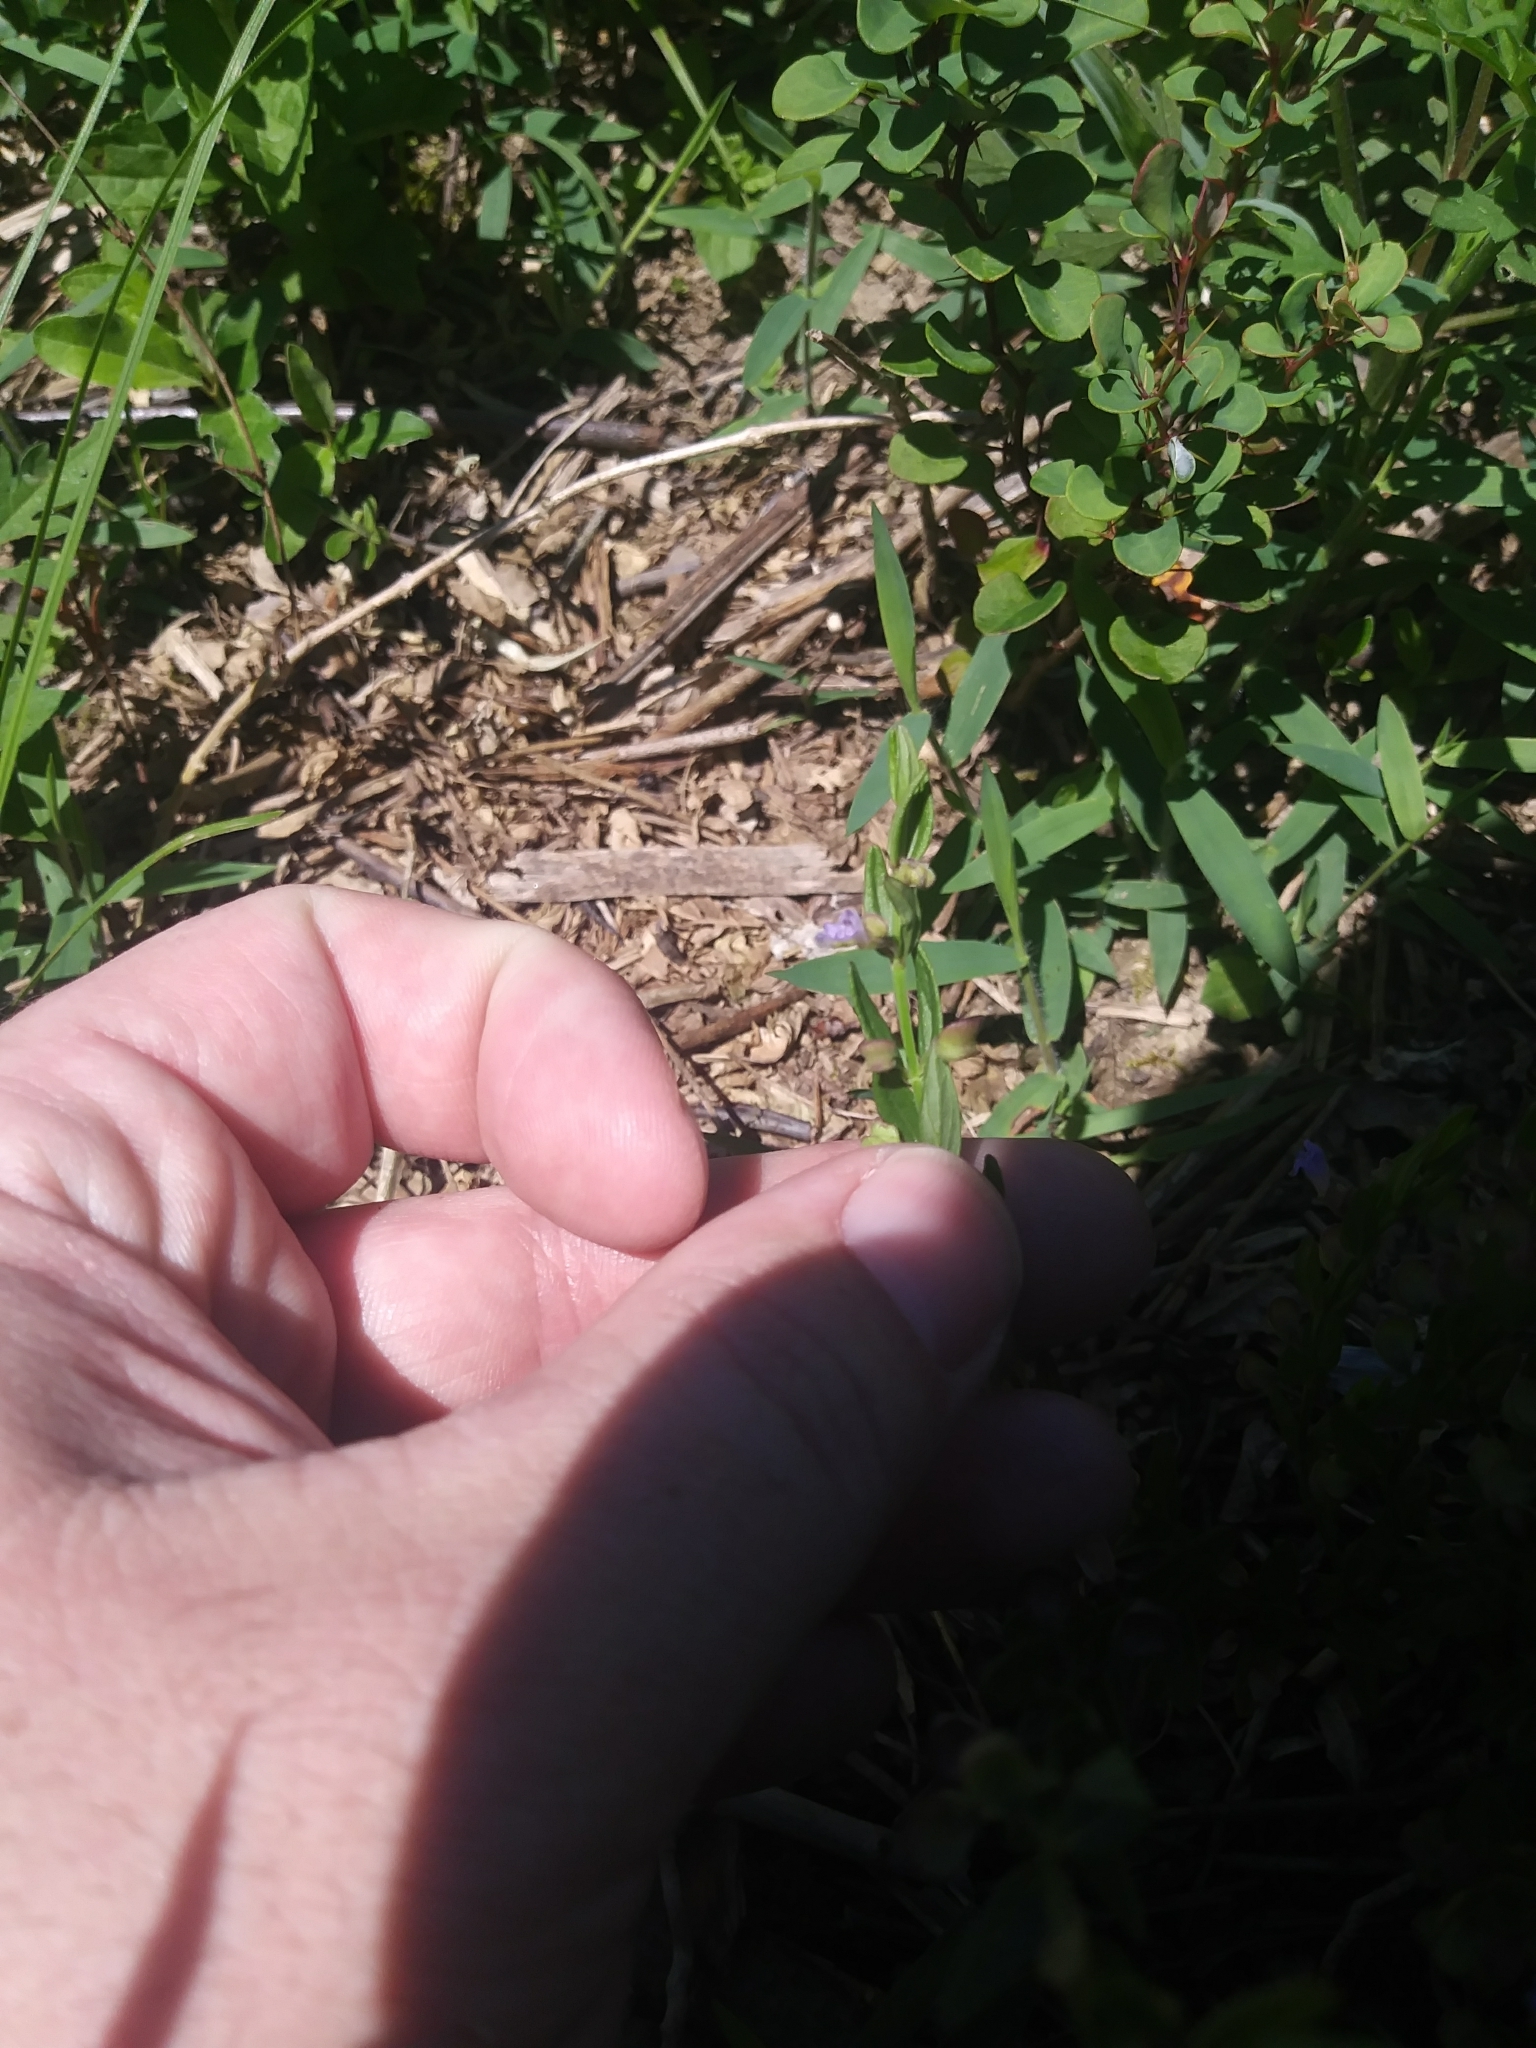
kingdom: Plantae
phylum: Tracheophyta
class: Magnoliopsida
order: Lamiales
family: Lamiaceae
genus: Scutellaria
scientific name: Scutellaria parvula
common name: Little scullcap
